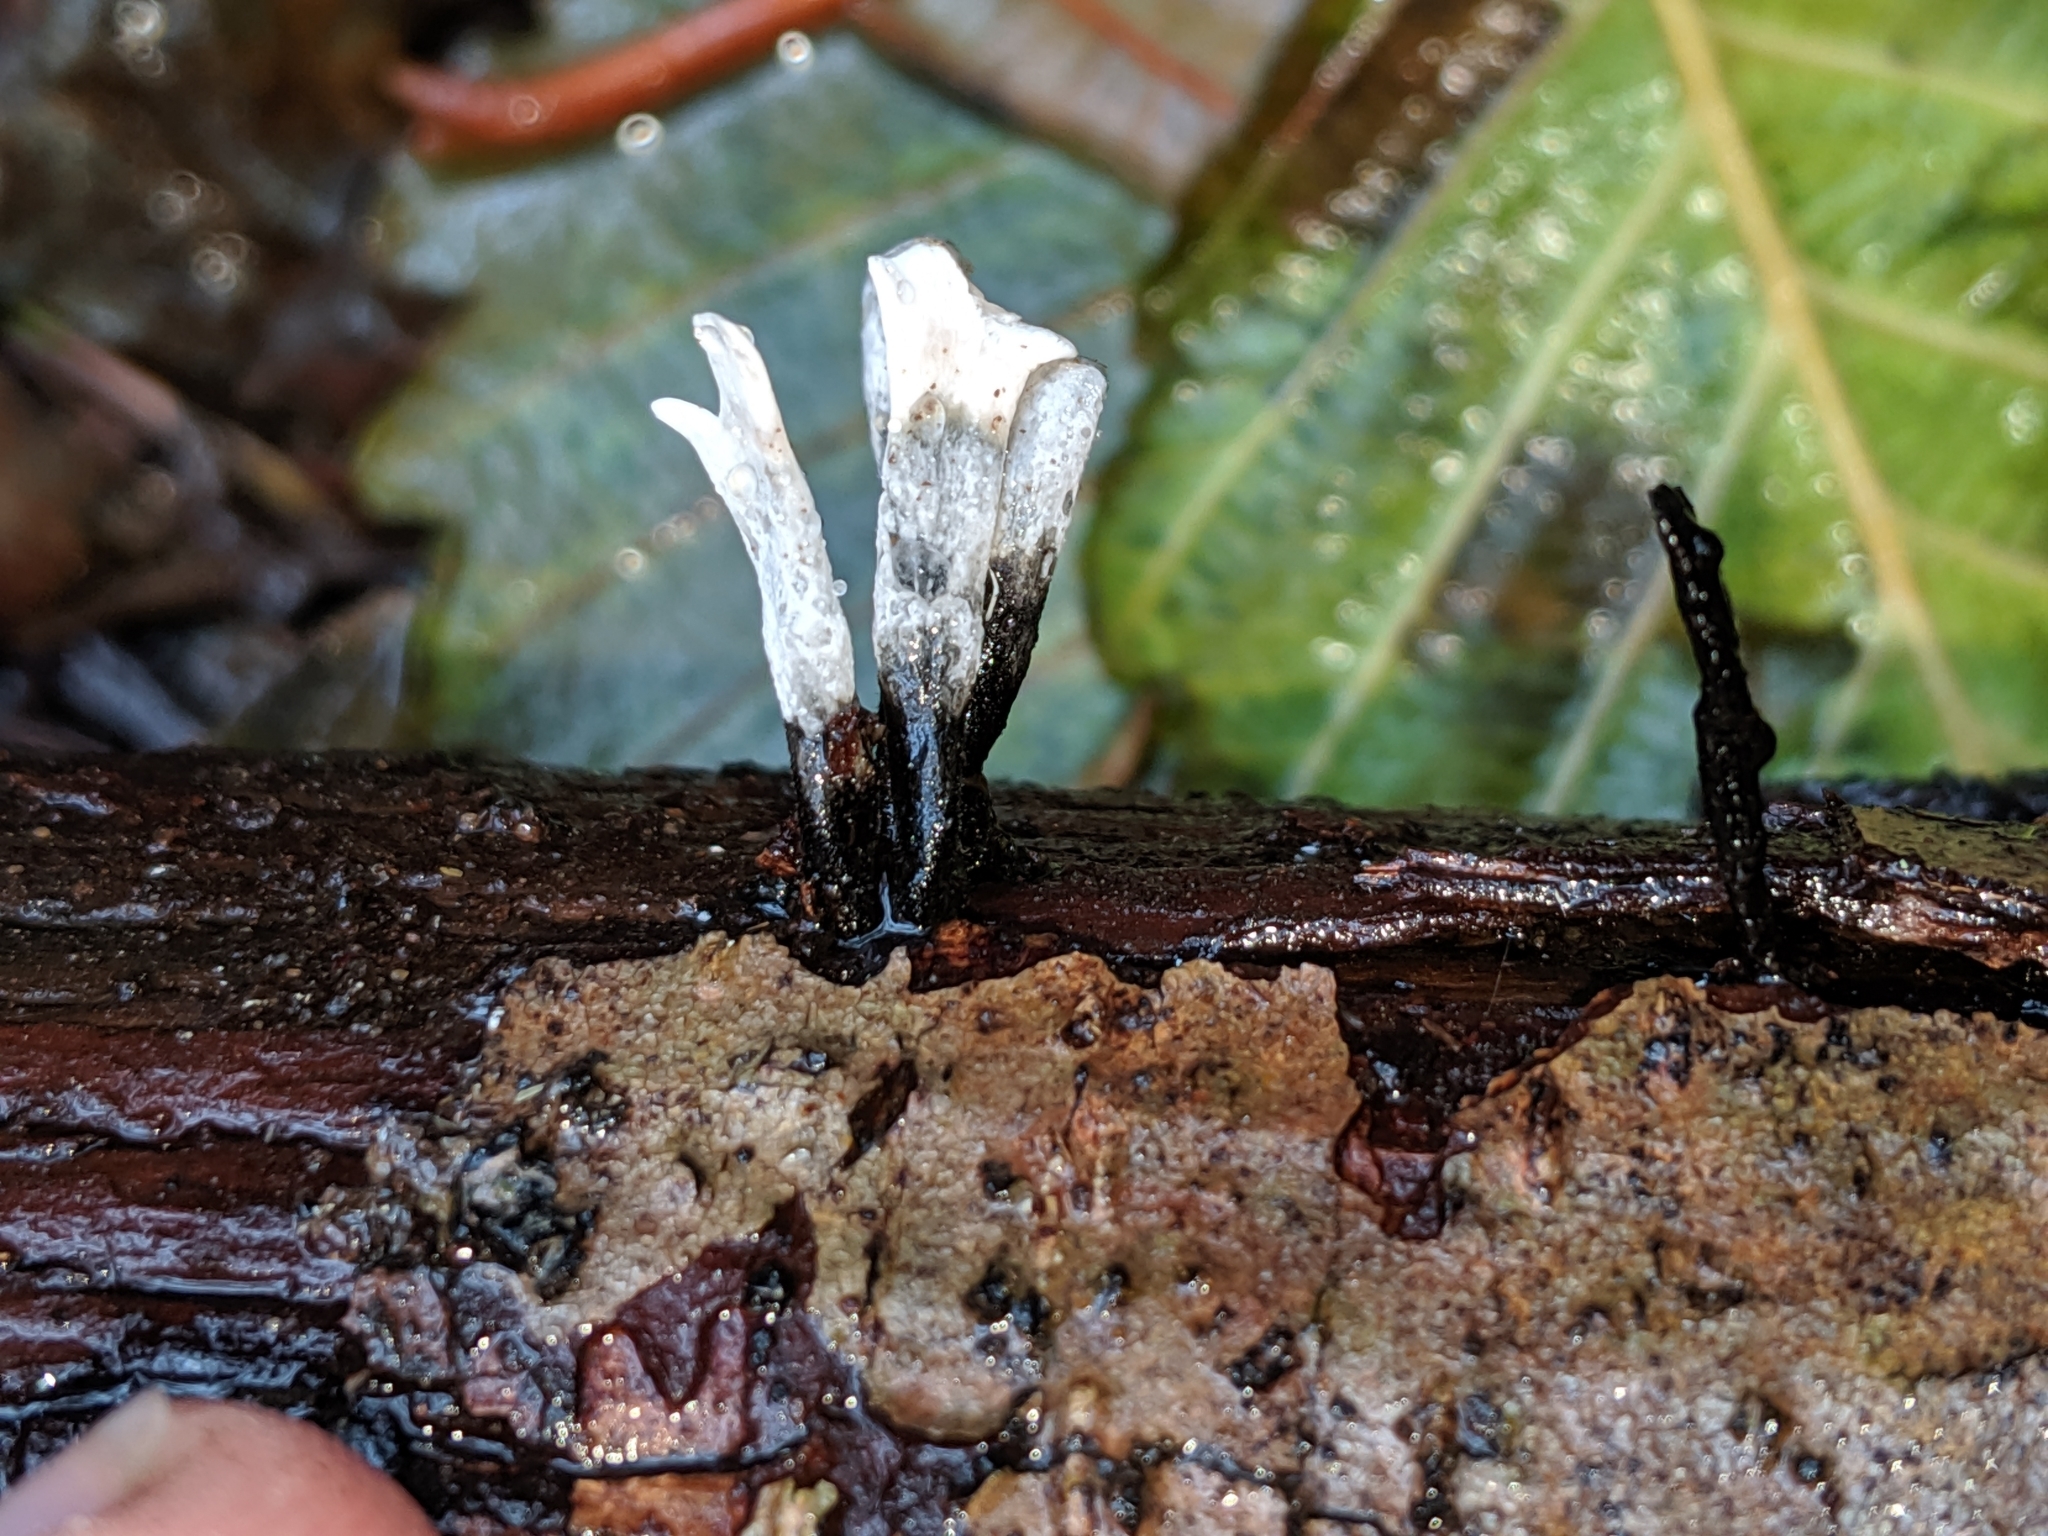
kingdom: Fungi
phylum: Ascomycota
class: Sordariomycetes
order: Xylariales
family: Xylariaceae
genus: Xylaria
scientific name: Xylaria hypoxylon
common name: Candle-snuff fungus
